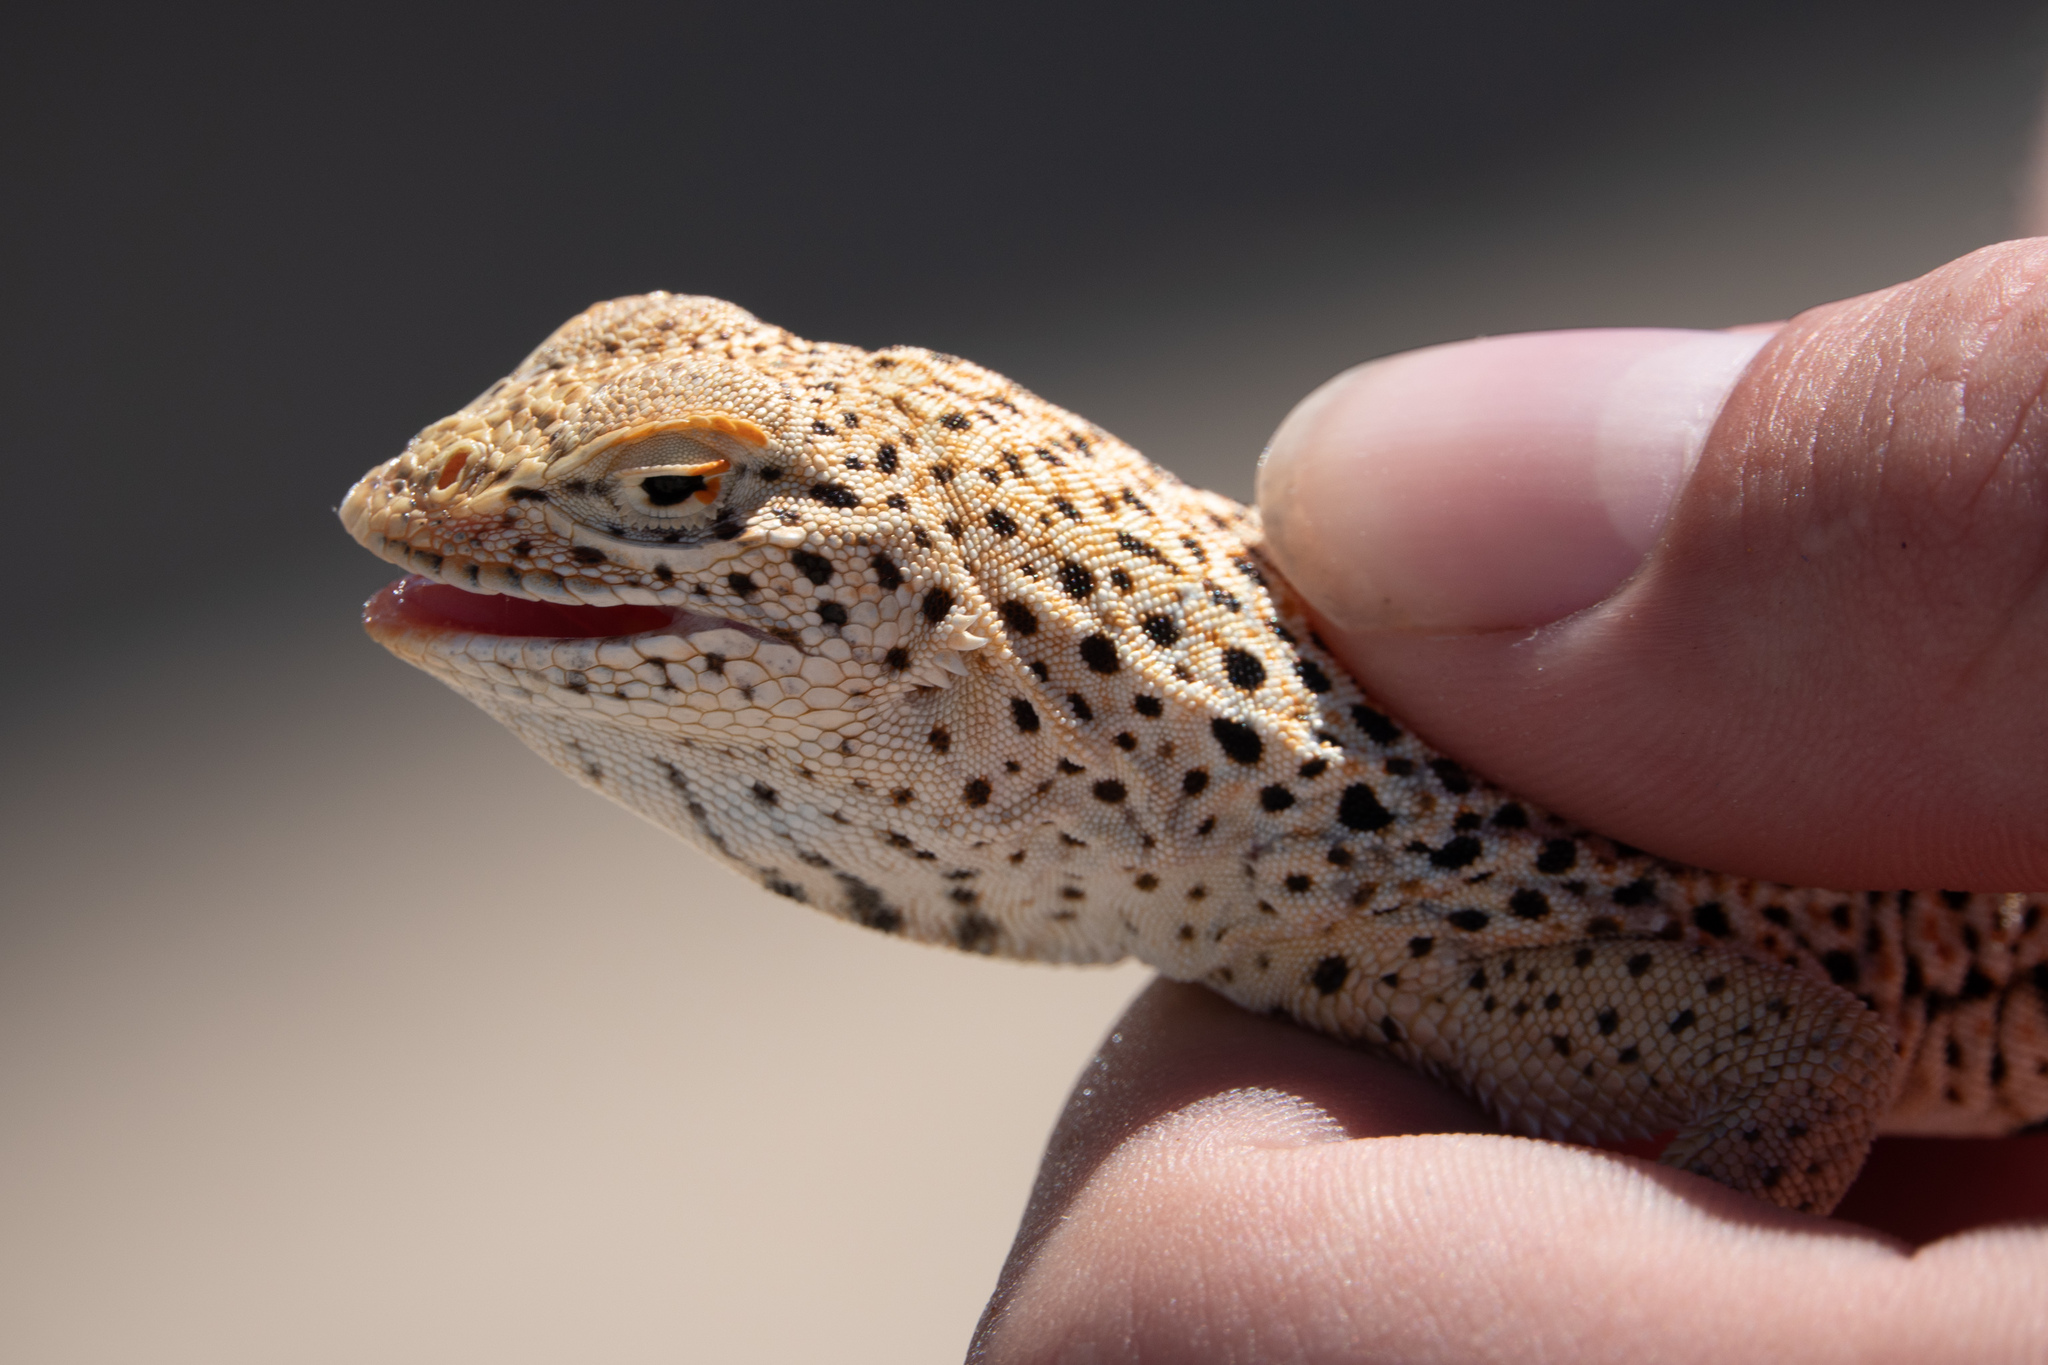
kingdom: Animalia
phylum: Chordata
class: Squamata
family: Phrynosomatidae
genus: Uma
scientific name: Uma scoparia
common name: Mojave fringe-toed lizard
